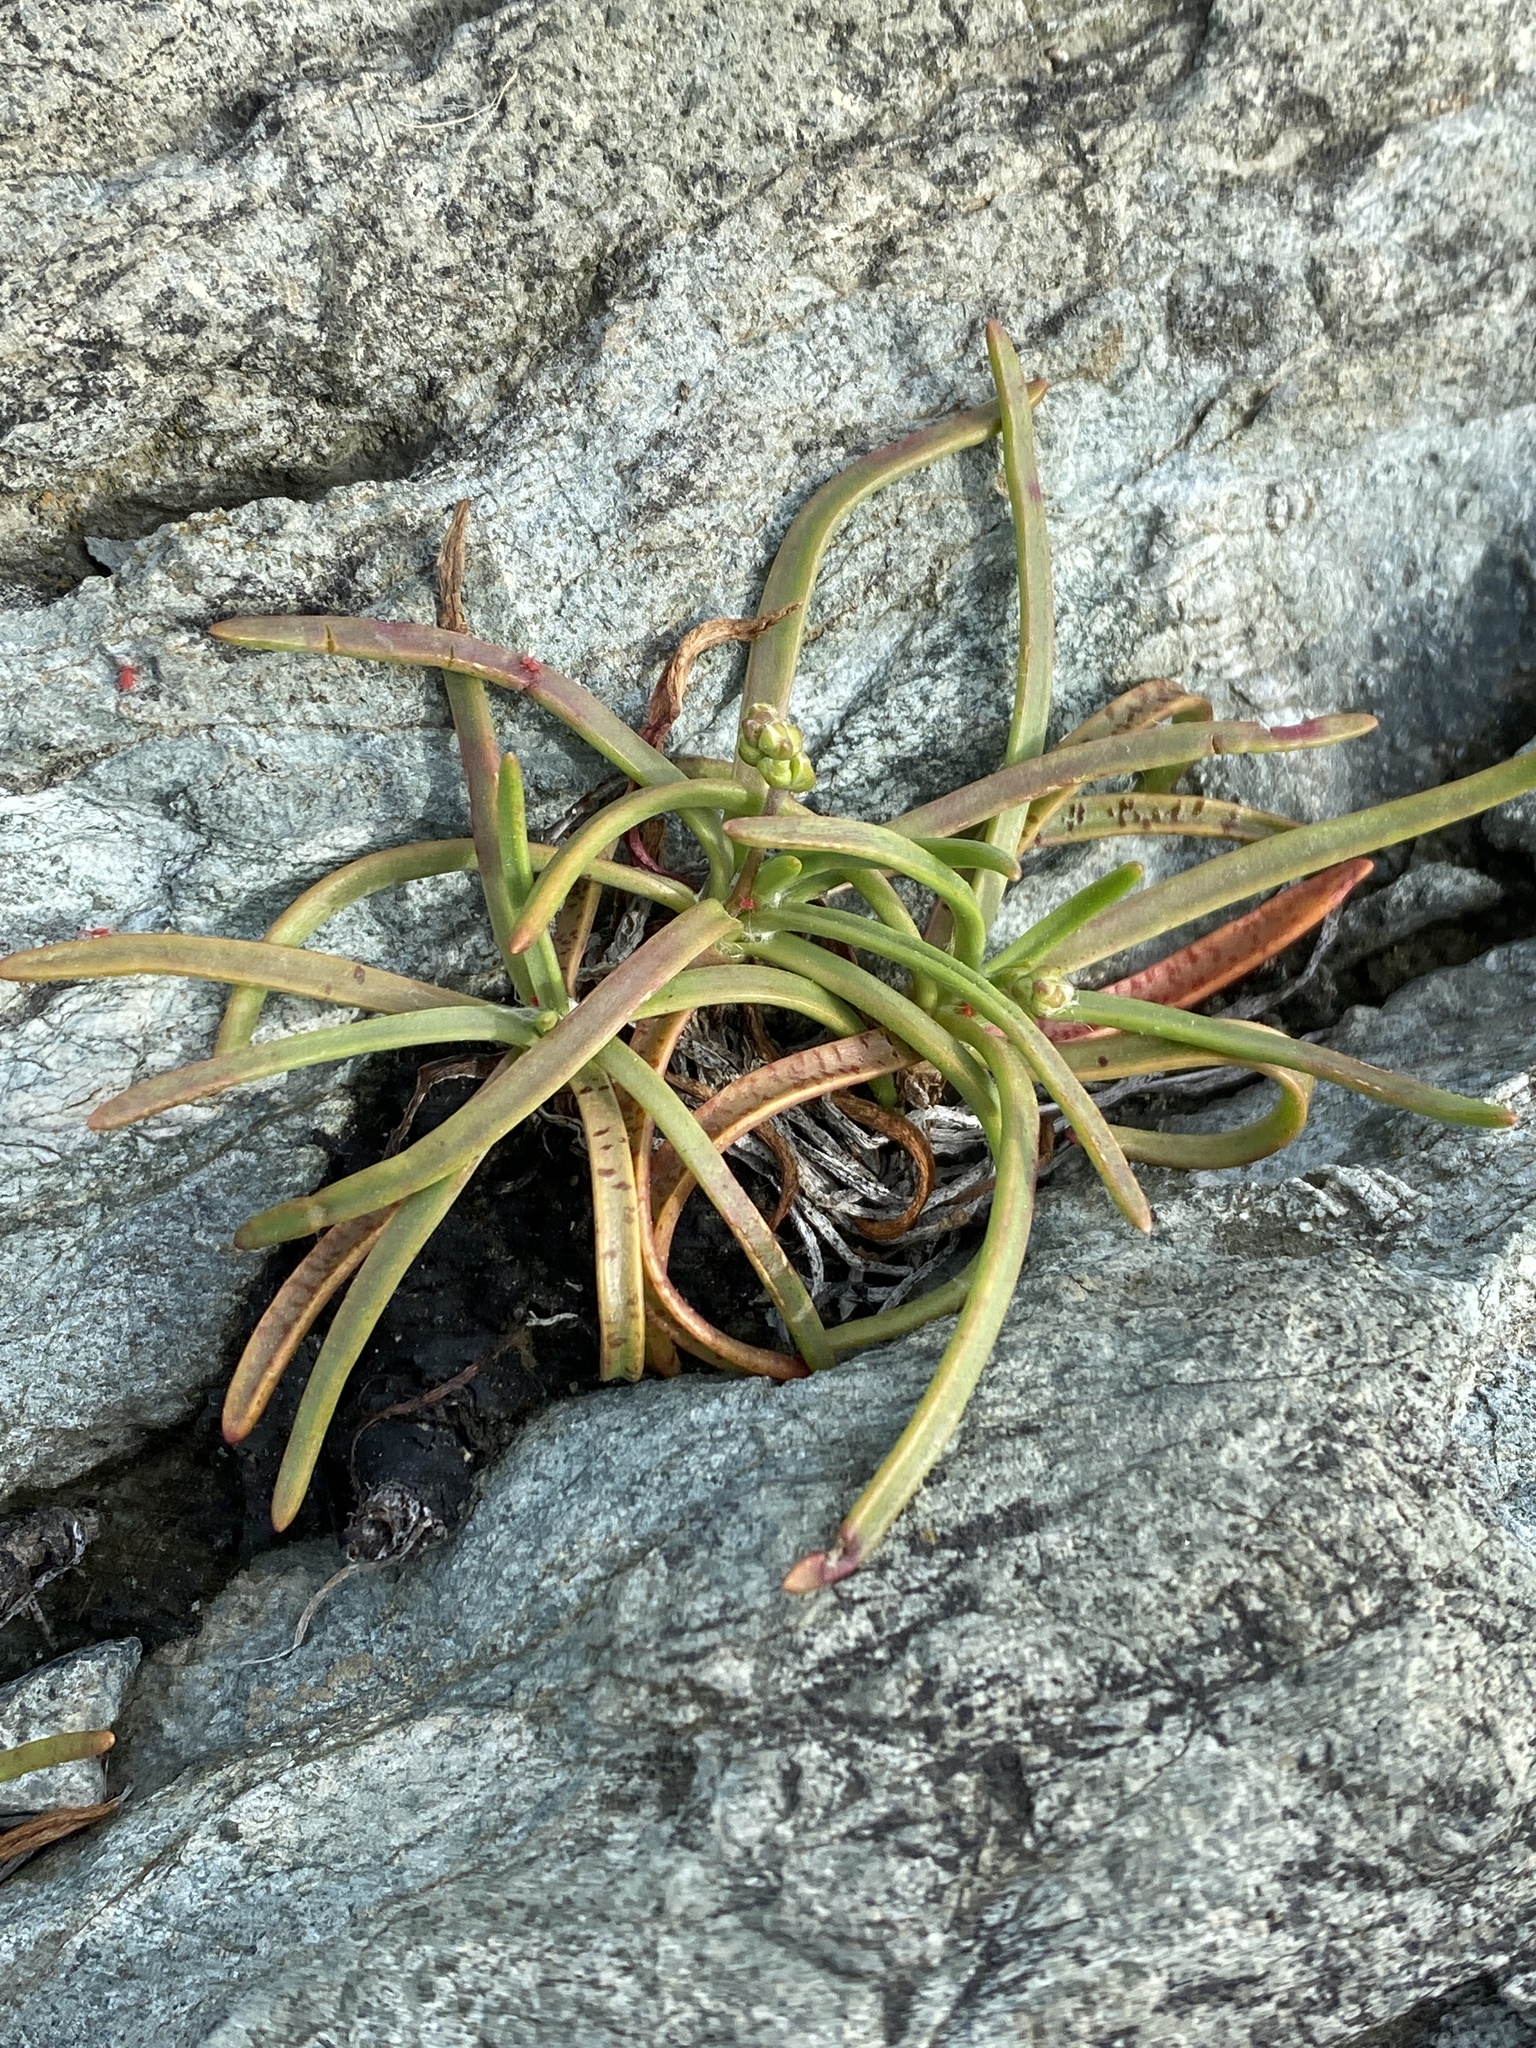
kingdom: Plantae
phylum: Tracheophyta
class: Magnoliopsida
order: Lamiales
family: Plantaginaceae
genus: Plantago
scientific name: Plantago maritima
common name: Sea plantain
